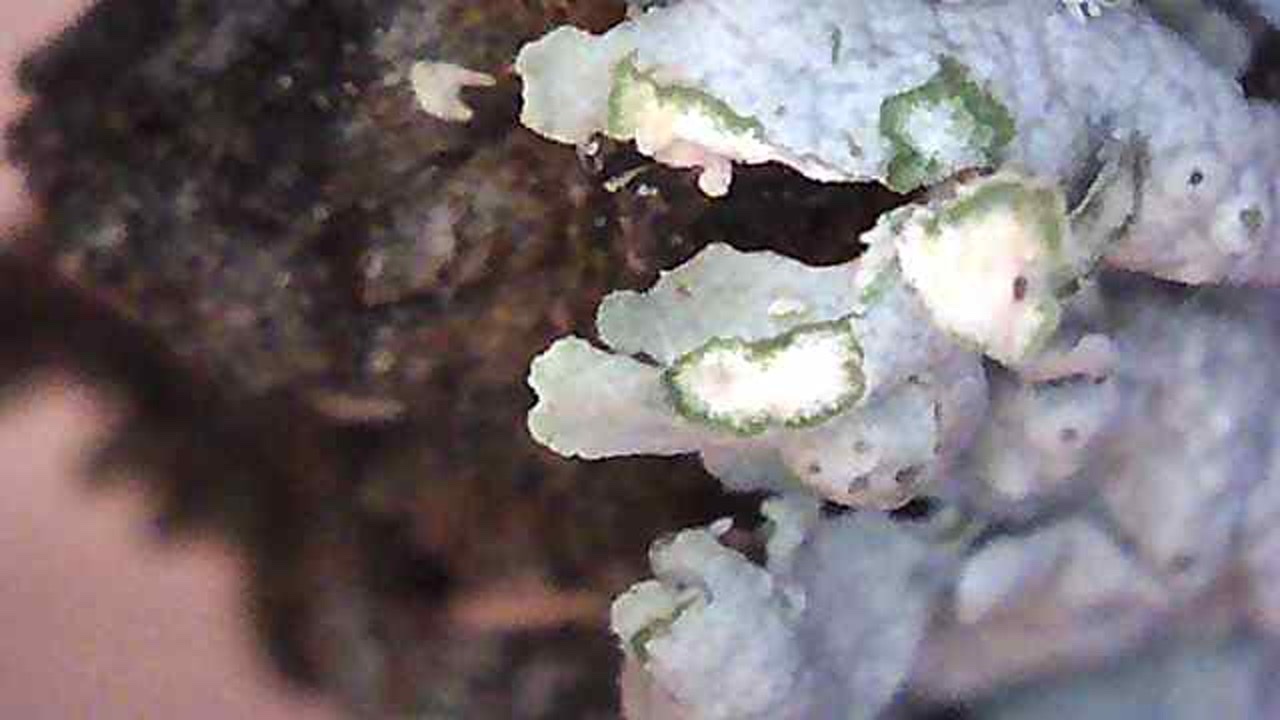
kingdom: Fungi
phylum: Ascomycota
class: Lecanoromycetes
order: Caliciales
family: Physciaceae
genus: Physcia
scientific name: Physcia stellaris
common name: Star rosette lichen
